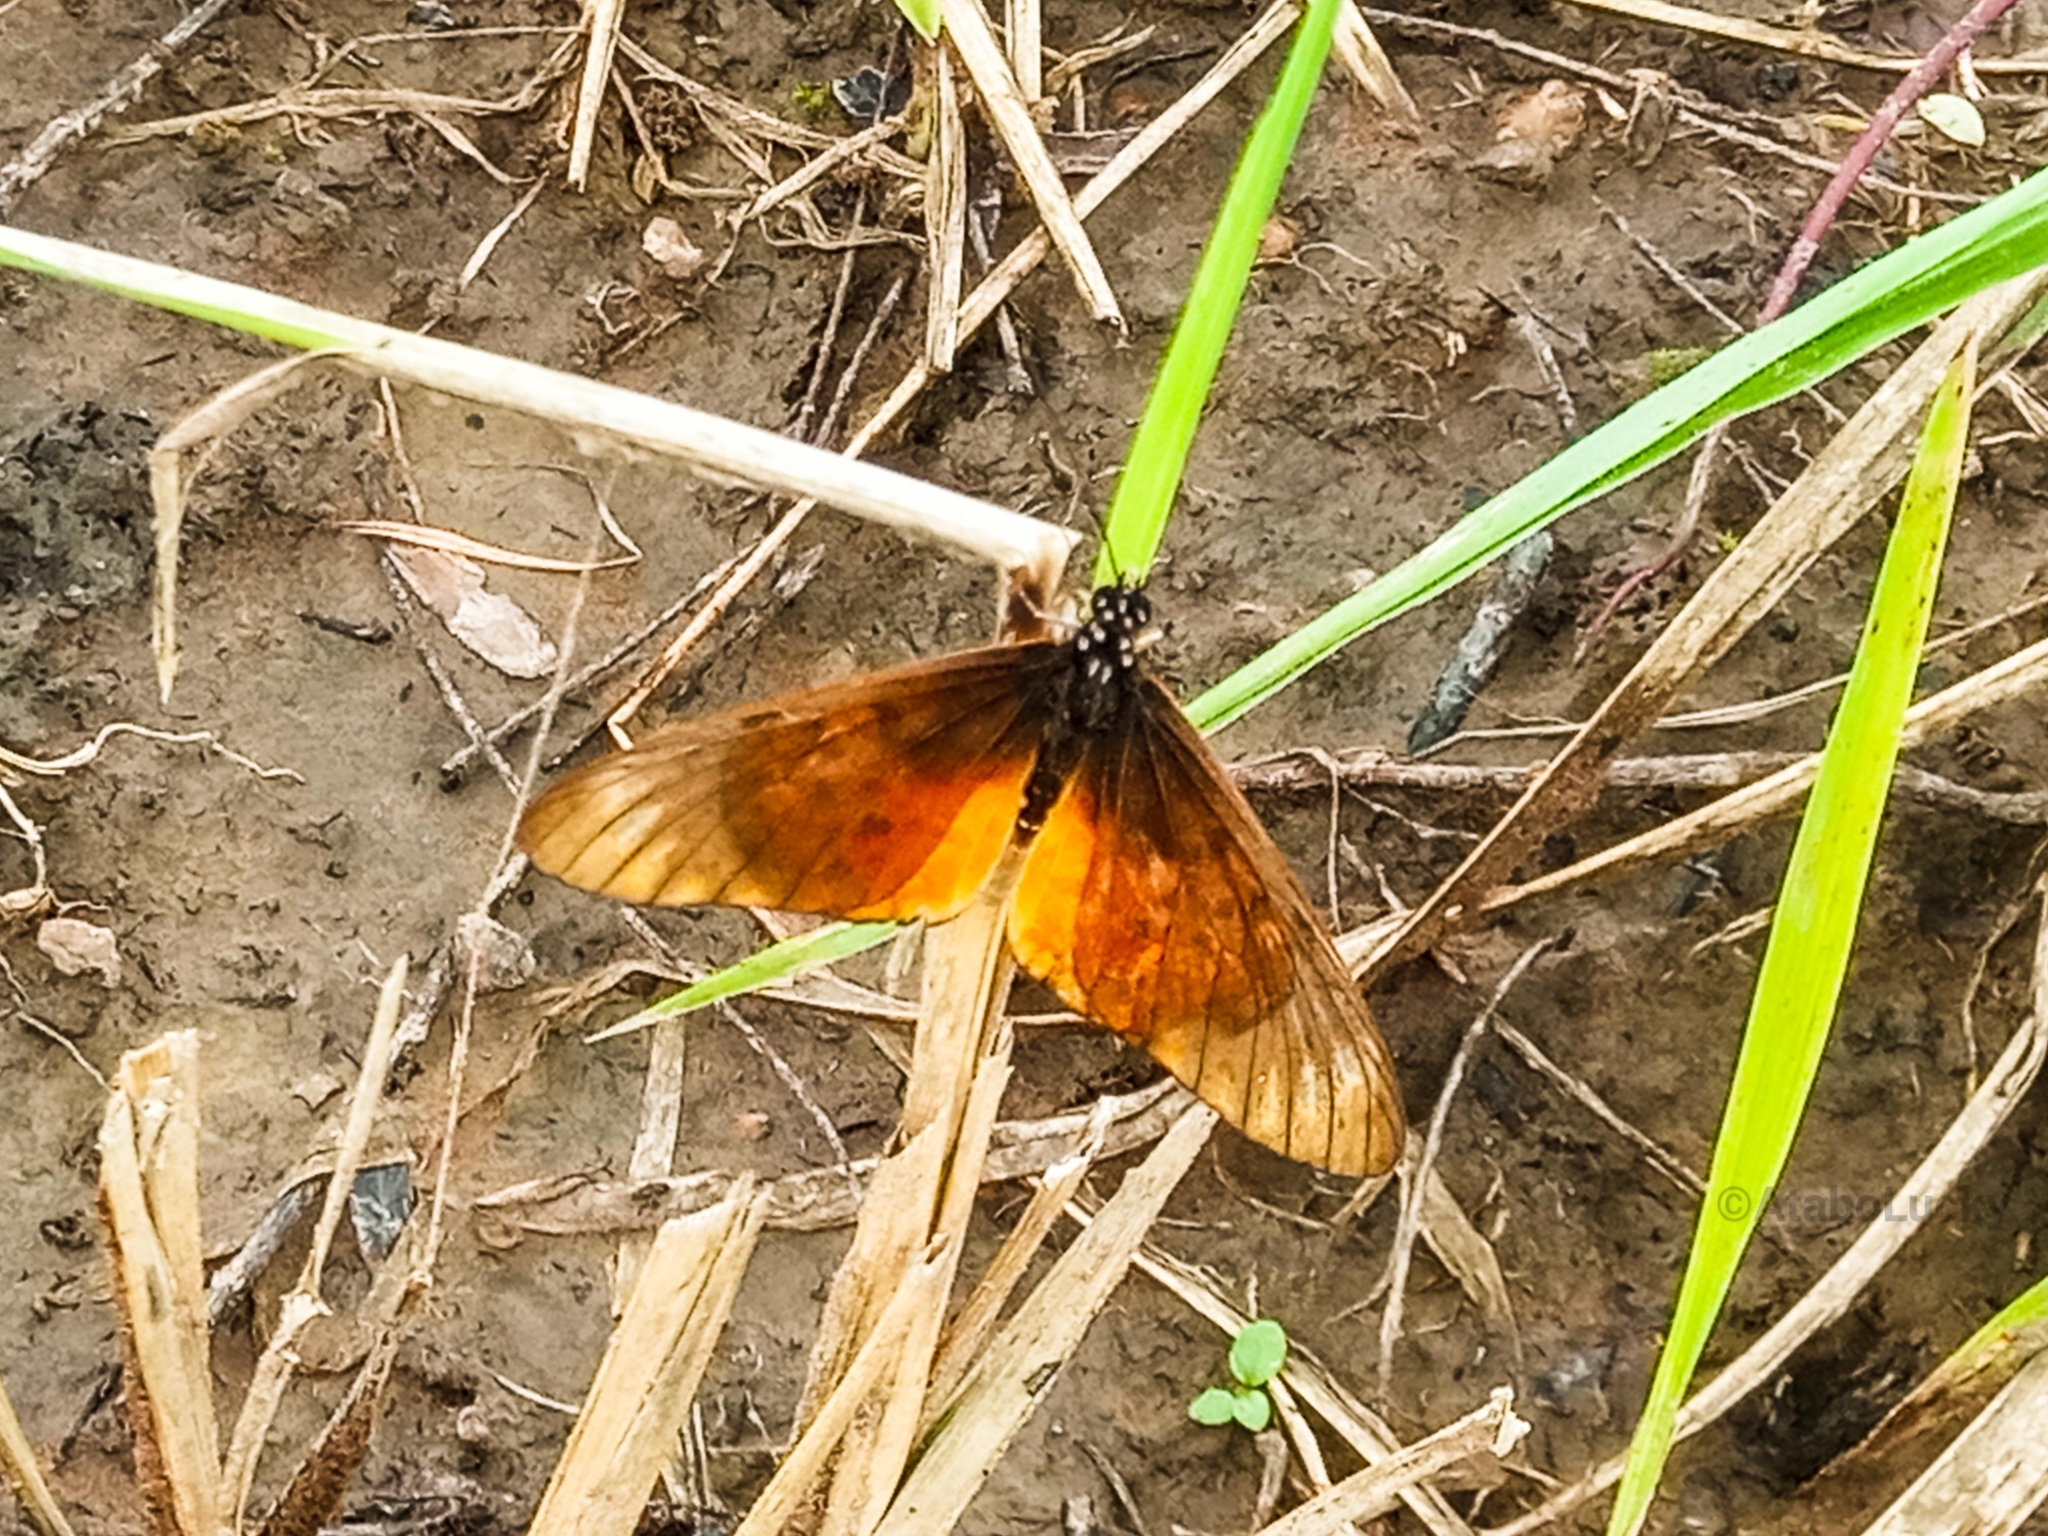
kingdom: Animalia
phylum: Arthropoda
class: Insecta
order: Lepidoptera
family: Nymphalidae
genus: Stephenia
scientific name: Stephenia
